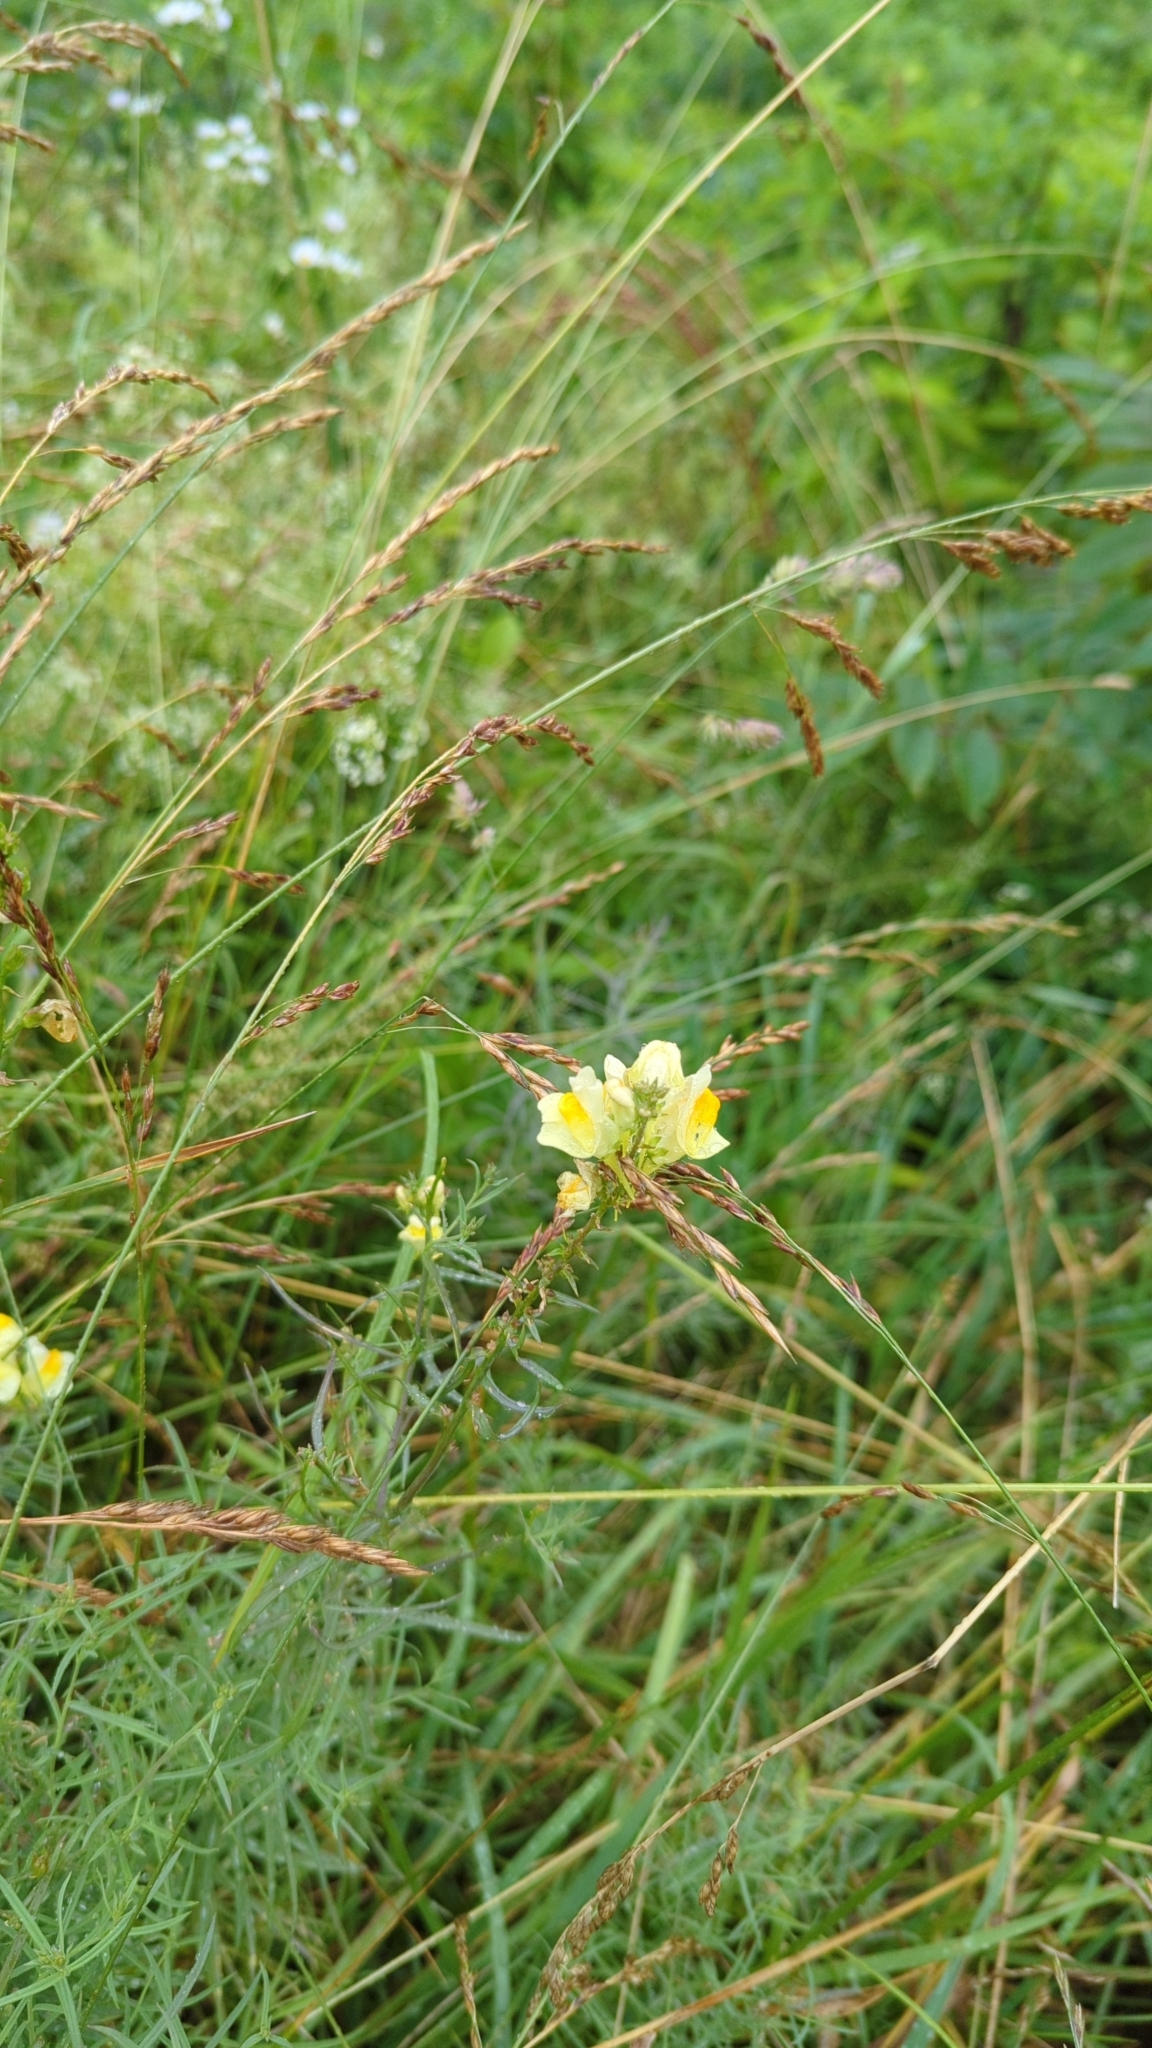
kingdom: Plantae
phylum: Tracheophyta
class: Magnoliopsida
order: Lamiales
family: Plantaginaceae
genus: Linaria
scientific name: Linaria vulgaris
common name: Butter and eggs
